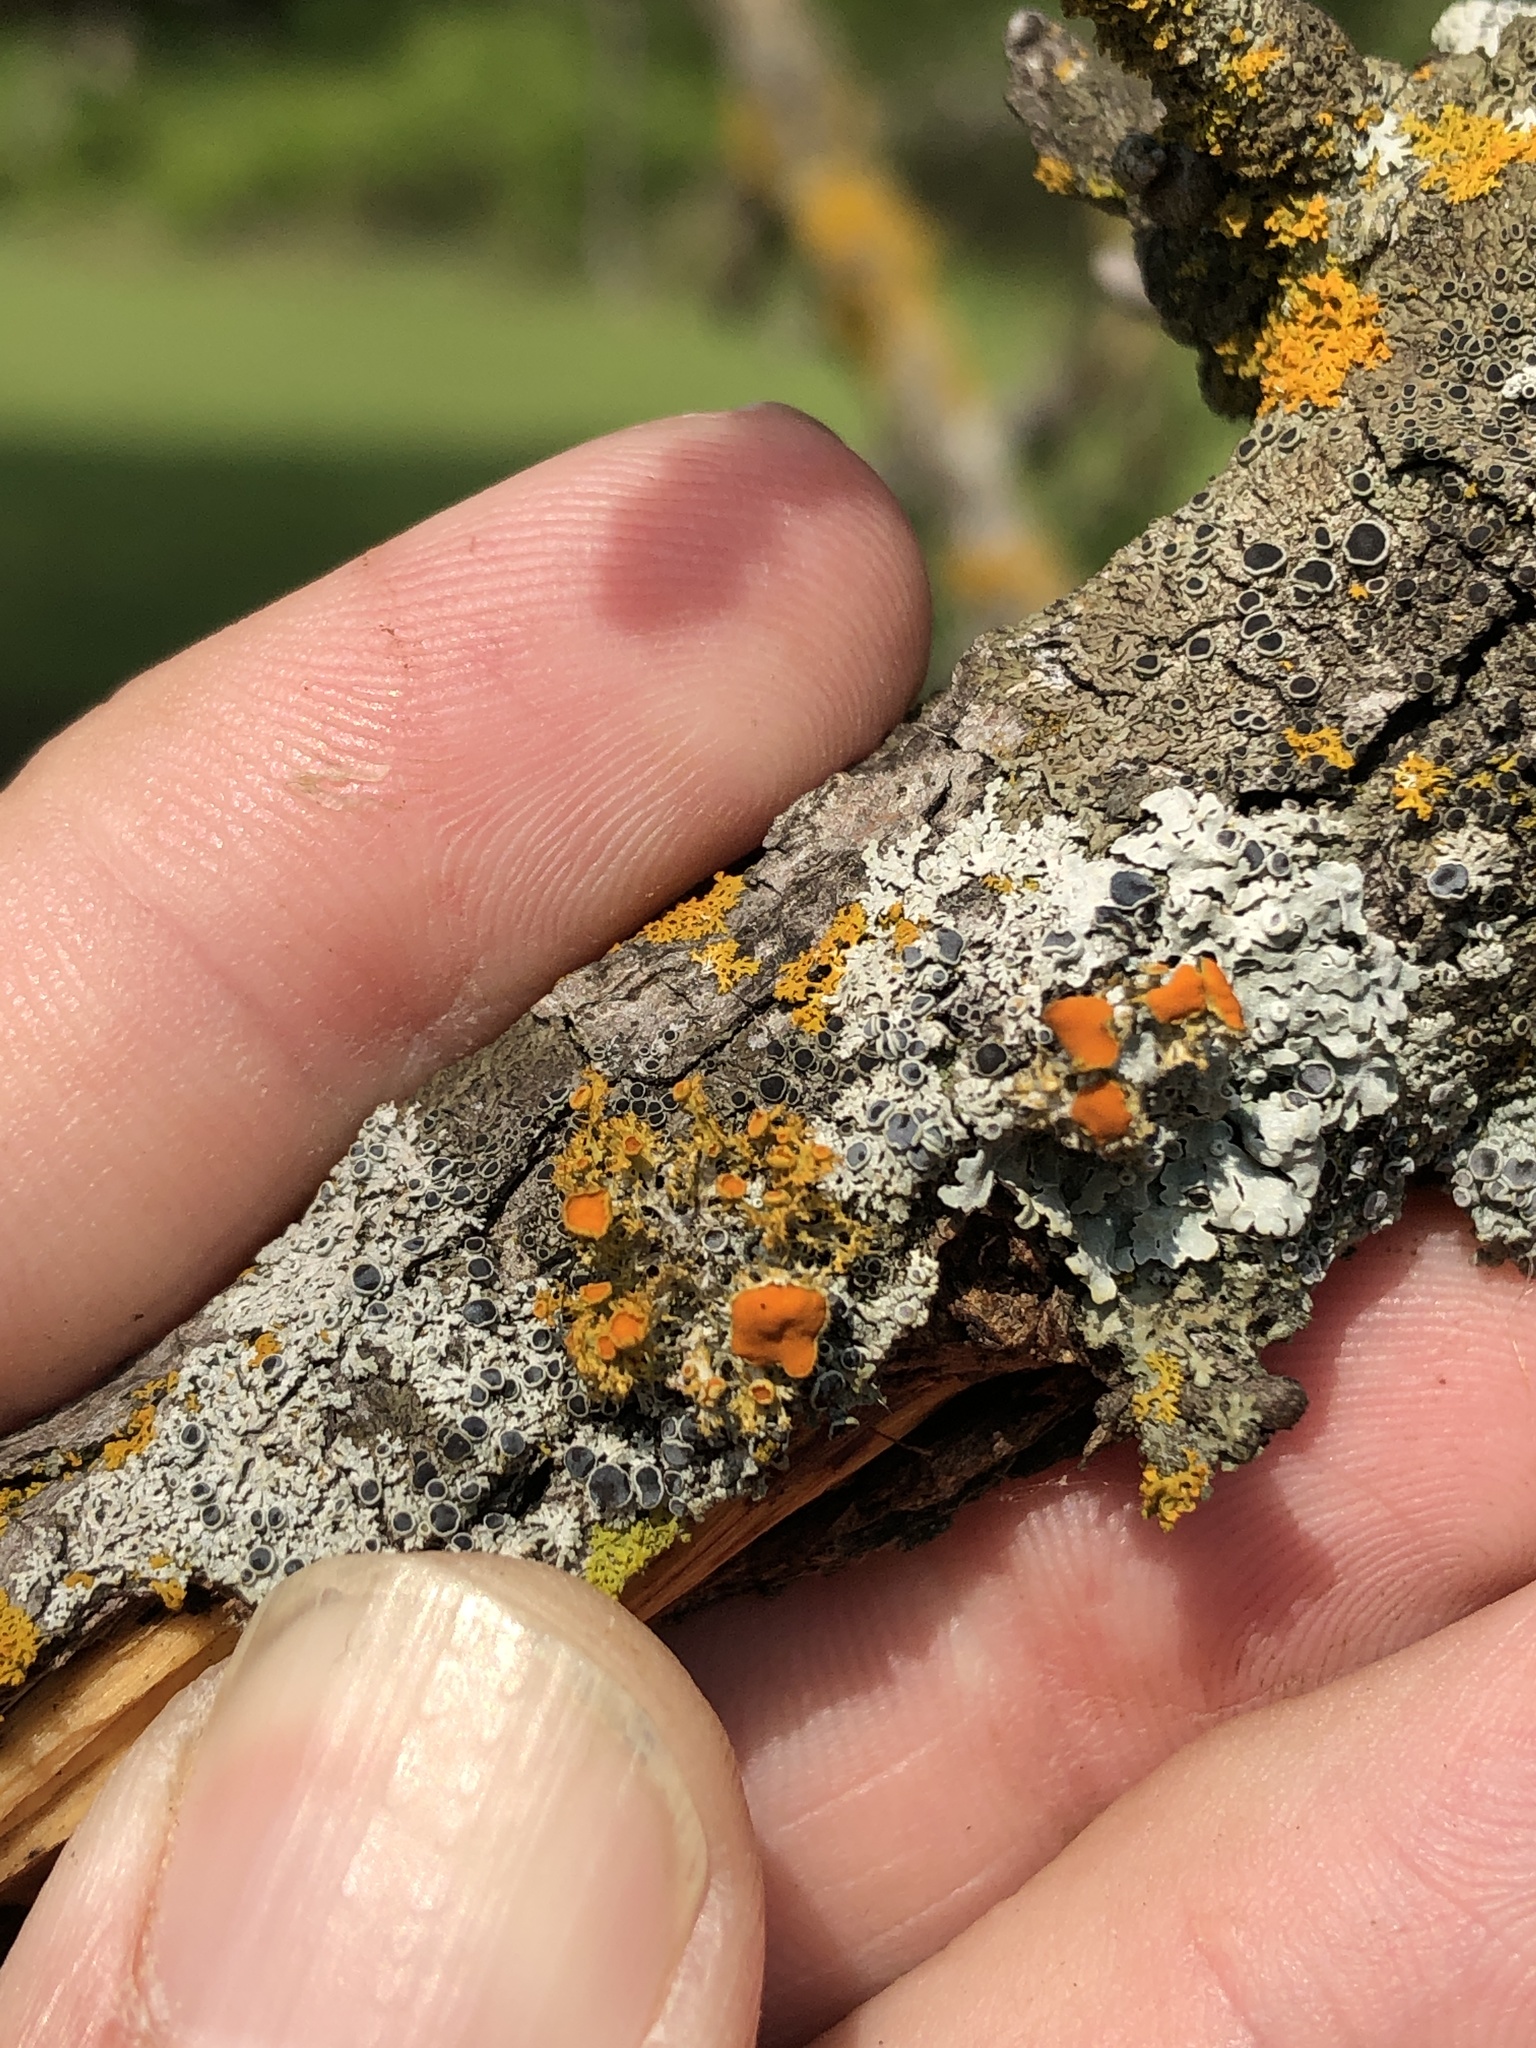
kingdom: Fungi
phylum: Ascomycota
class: Lecanoromycetes
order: Teloschistales
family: Teloschistaceae
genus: Niorma
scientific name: Niorma chrysophthalma
